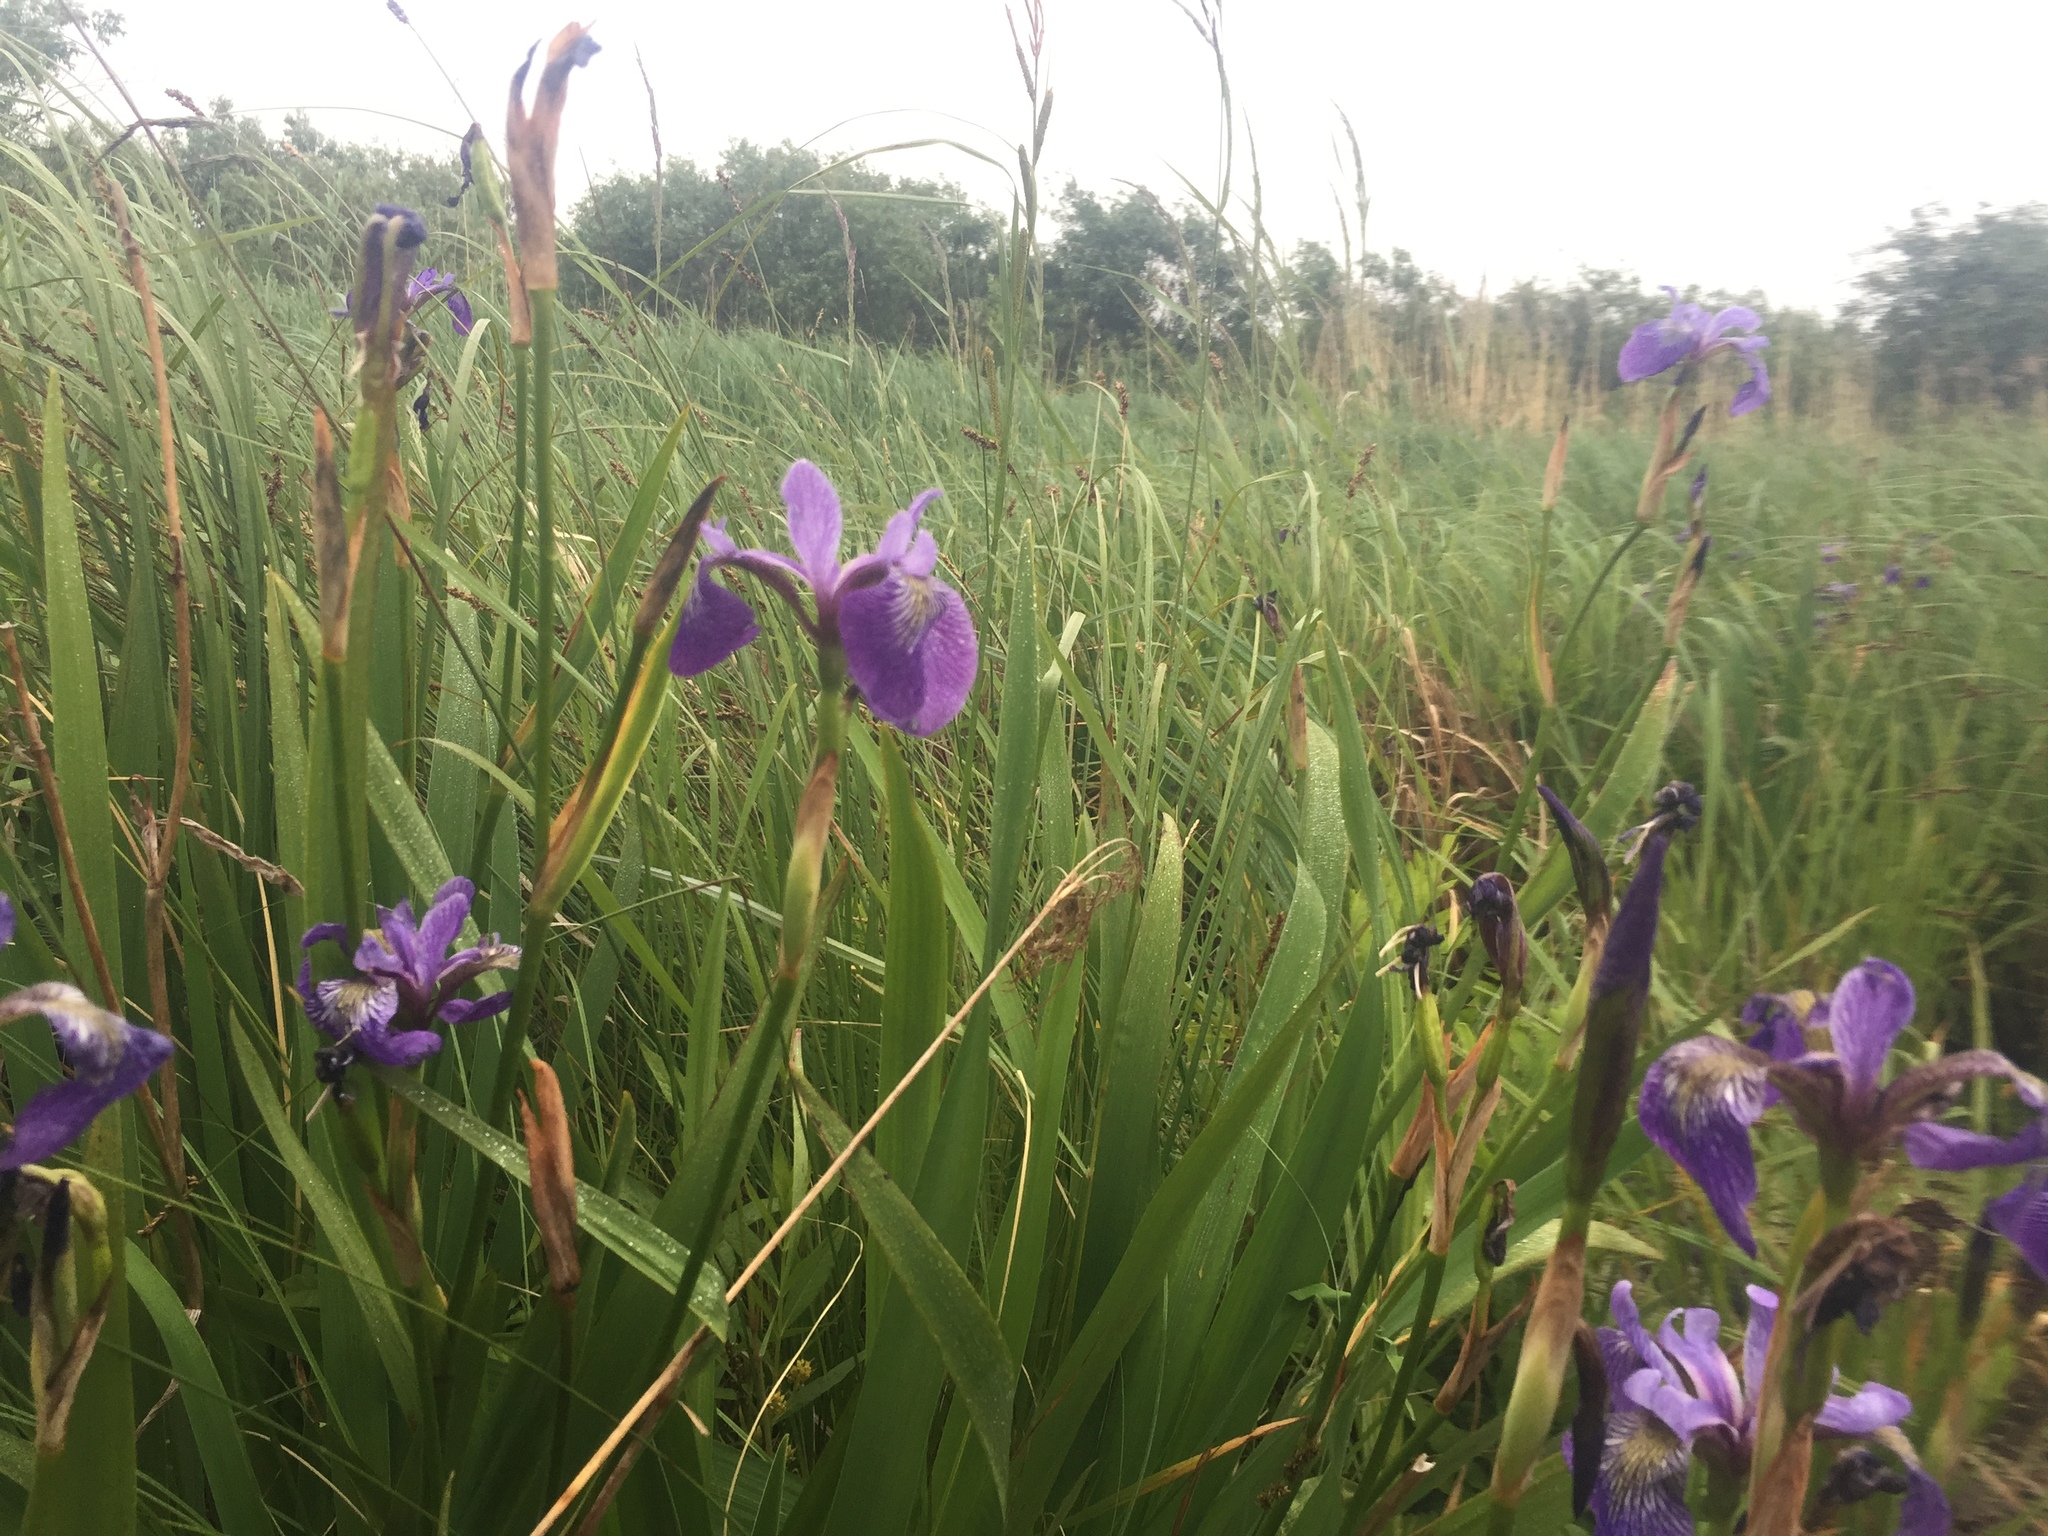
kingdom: Plantae
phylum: Tracheophyta
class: Liliopsida
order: Asparagales
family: Iridaceae
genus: Iris
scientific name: Iris versicolor
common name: Purple iris
